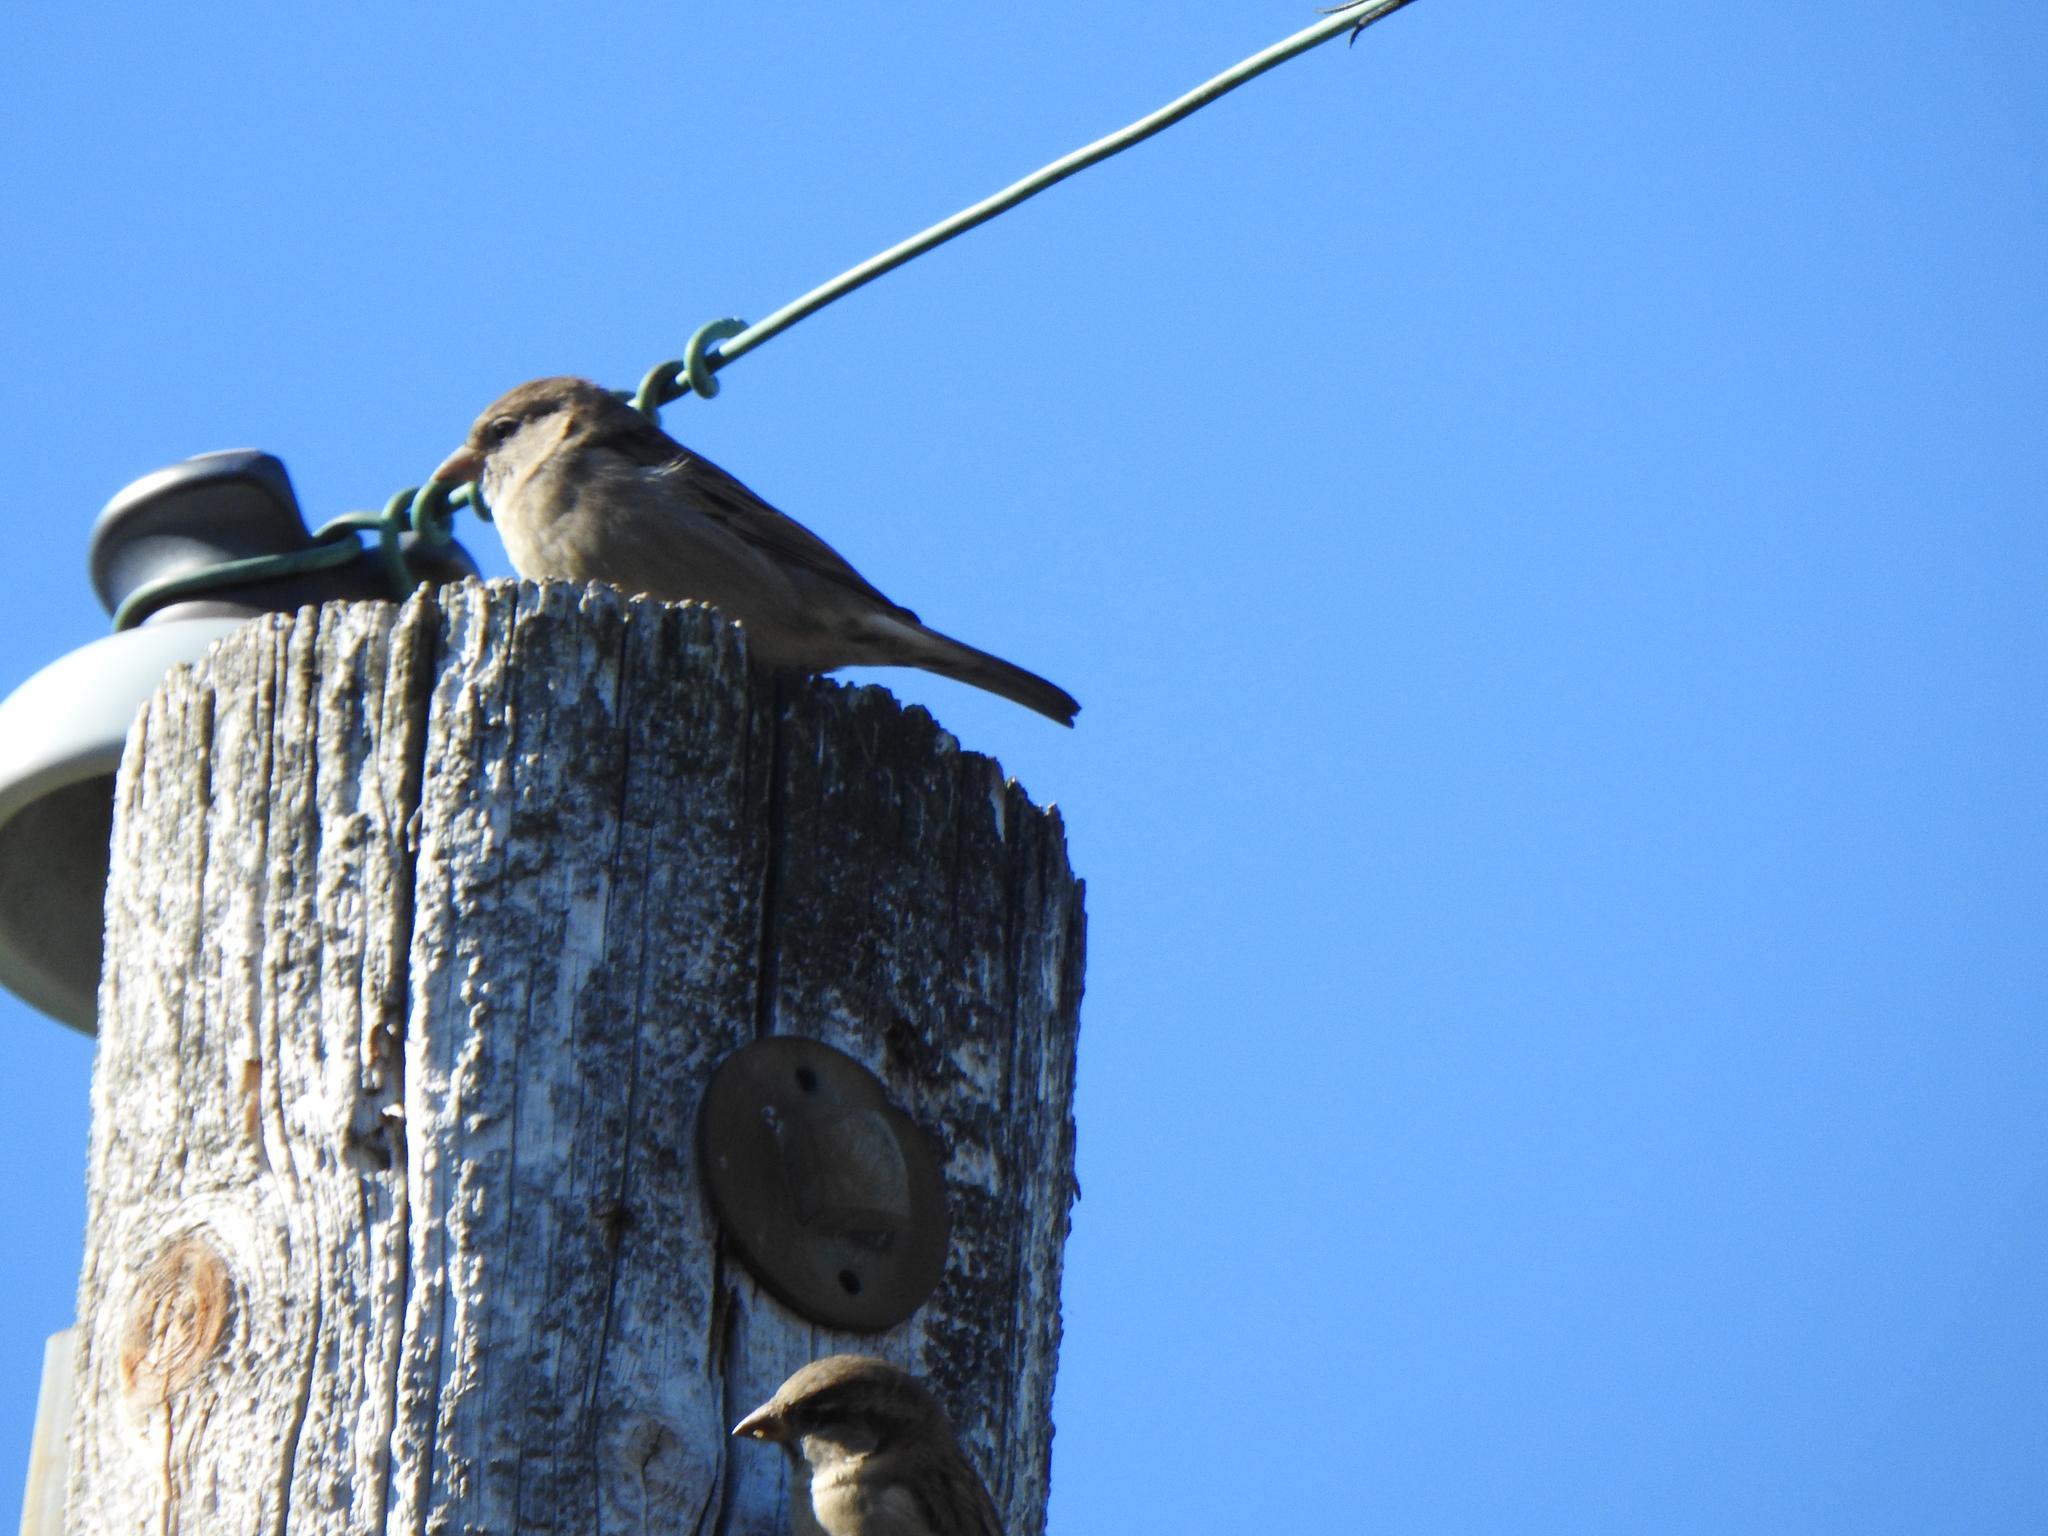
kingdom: Animalia
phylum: Chordata
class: Aves
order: Passeriformes
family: Passeridae
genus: Passer
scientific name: Passer domesticus
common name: House sparrow
